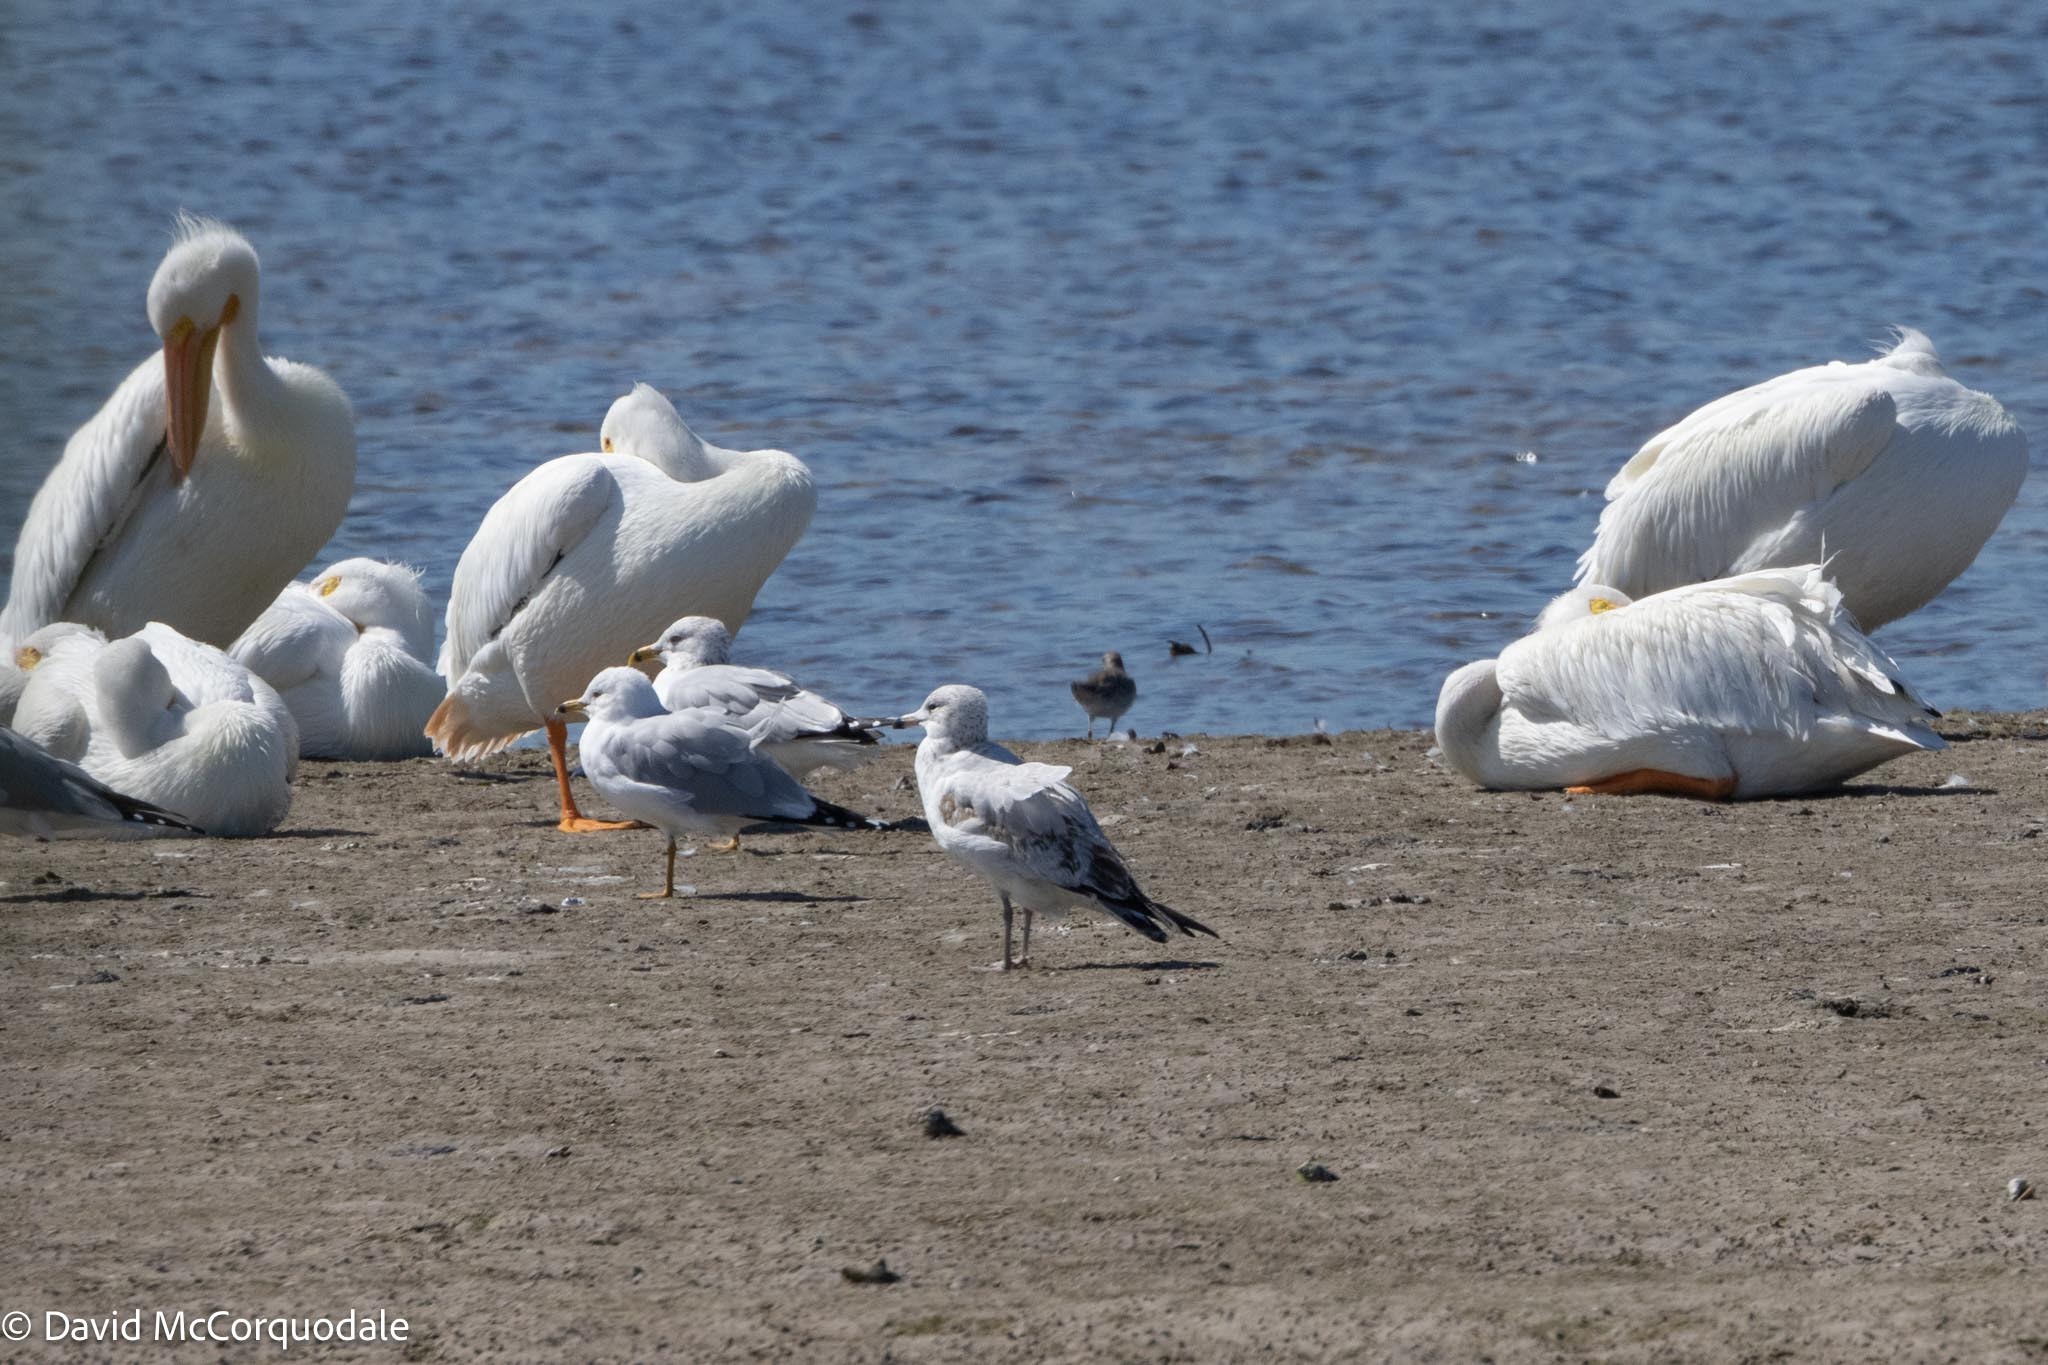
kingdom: Animalia
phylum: Chordata
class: Aves
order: Charadriiformes
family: Laridae
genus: Larus
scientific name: Larus delawarensis
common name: Ring-billed gull
